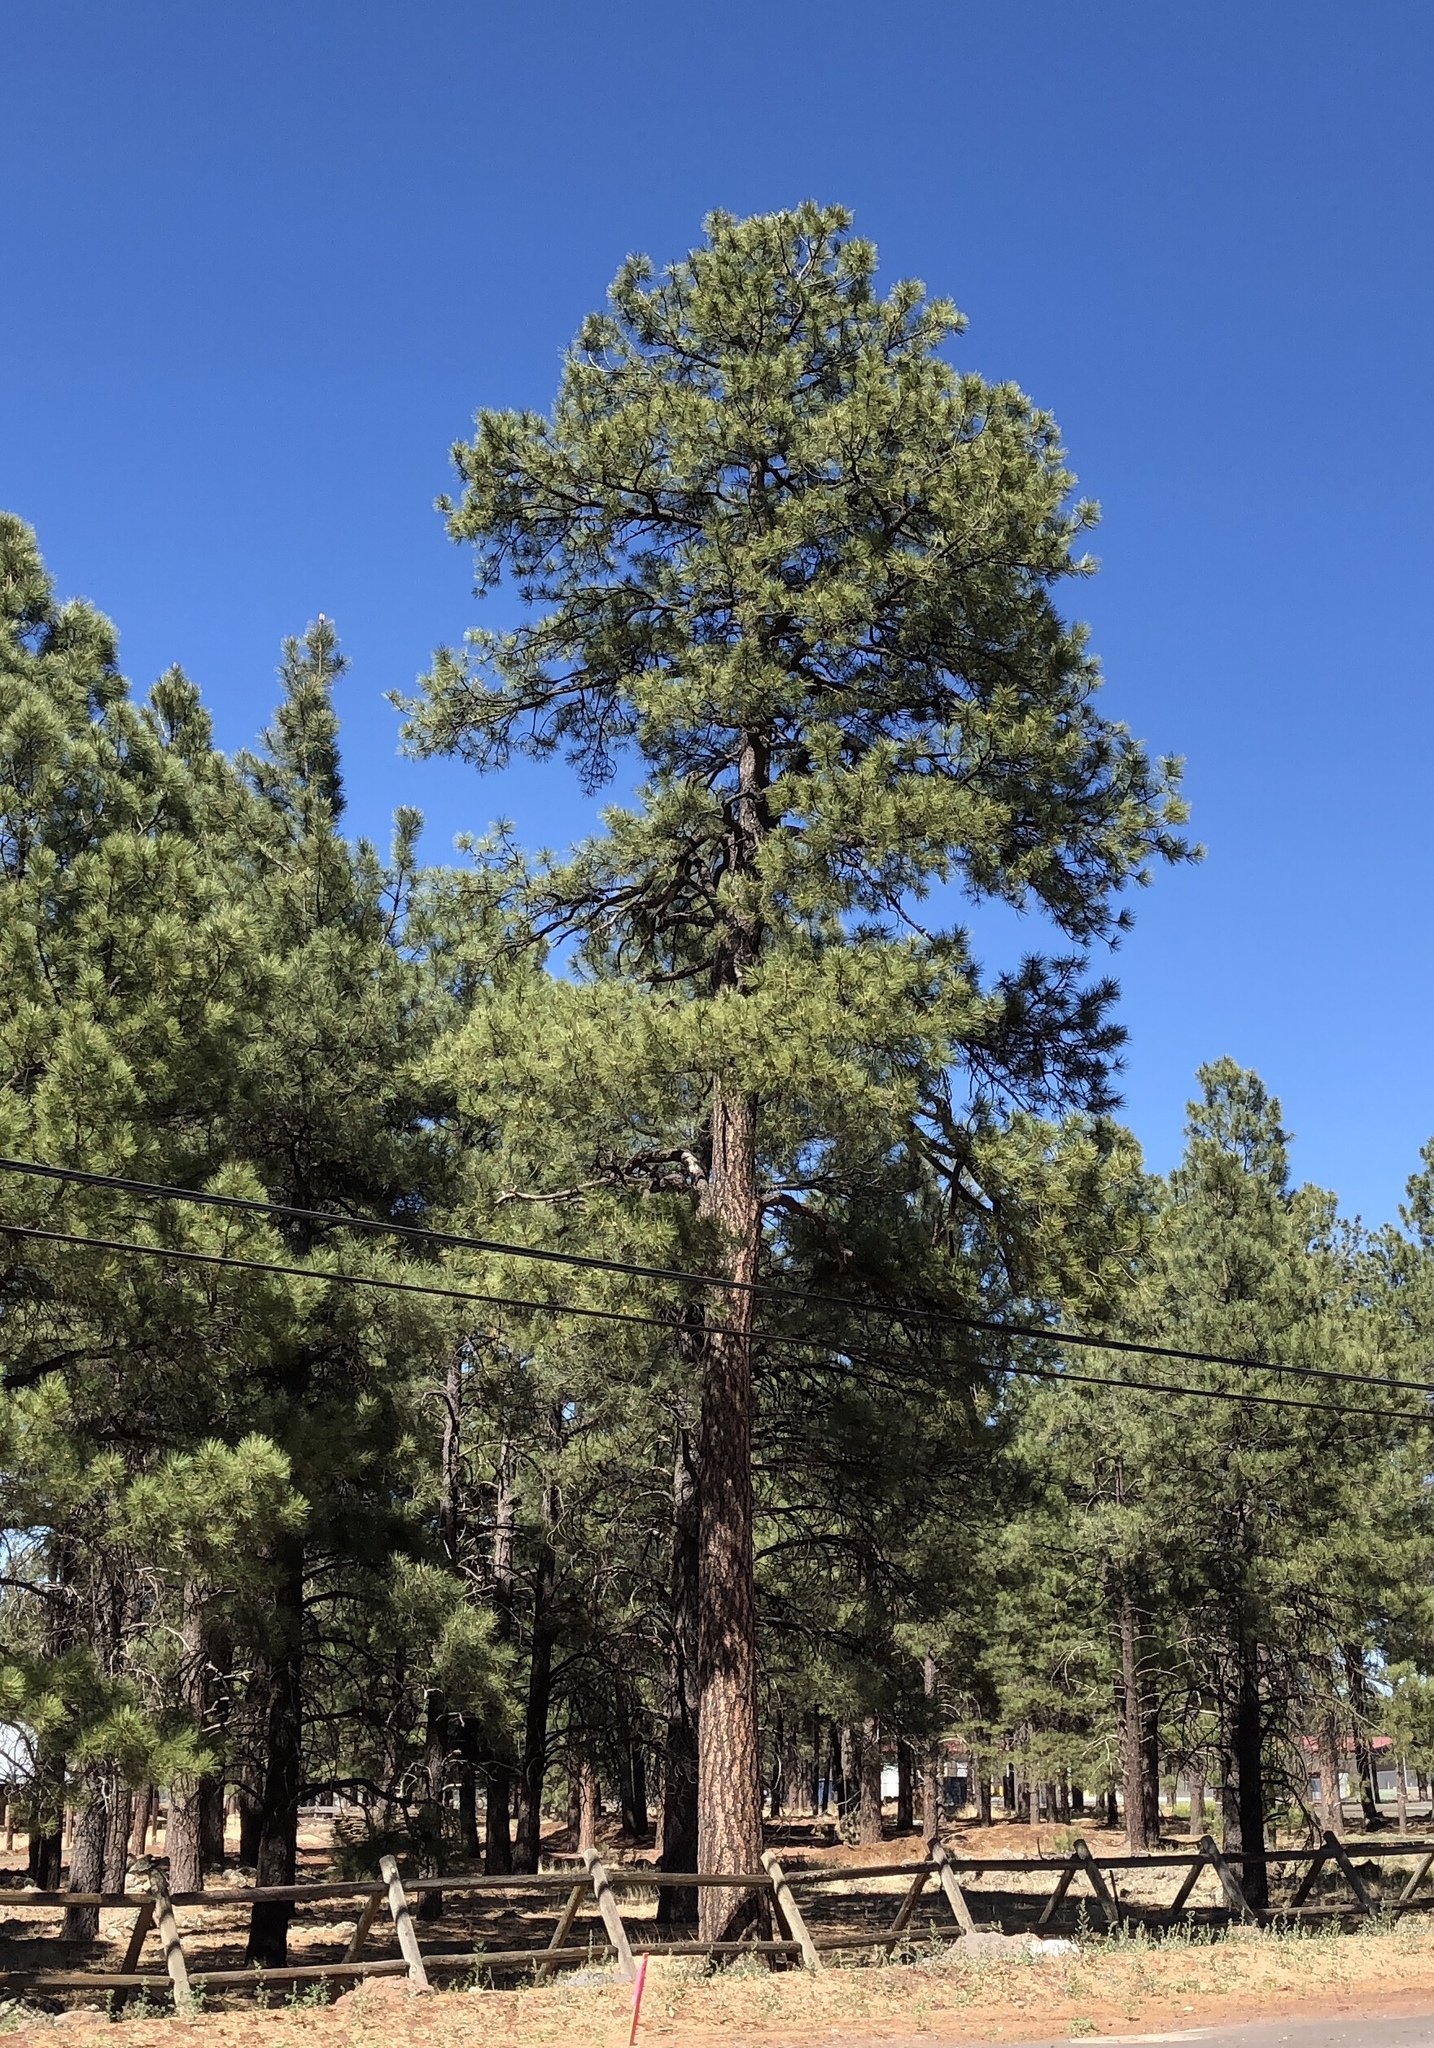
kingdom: Plantae
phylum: Tracheophyta
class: Pinopsida
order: Pinales
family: Pinaceae
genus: Pinus
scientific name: Pinus ponderosa
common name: Western yellow-pine
